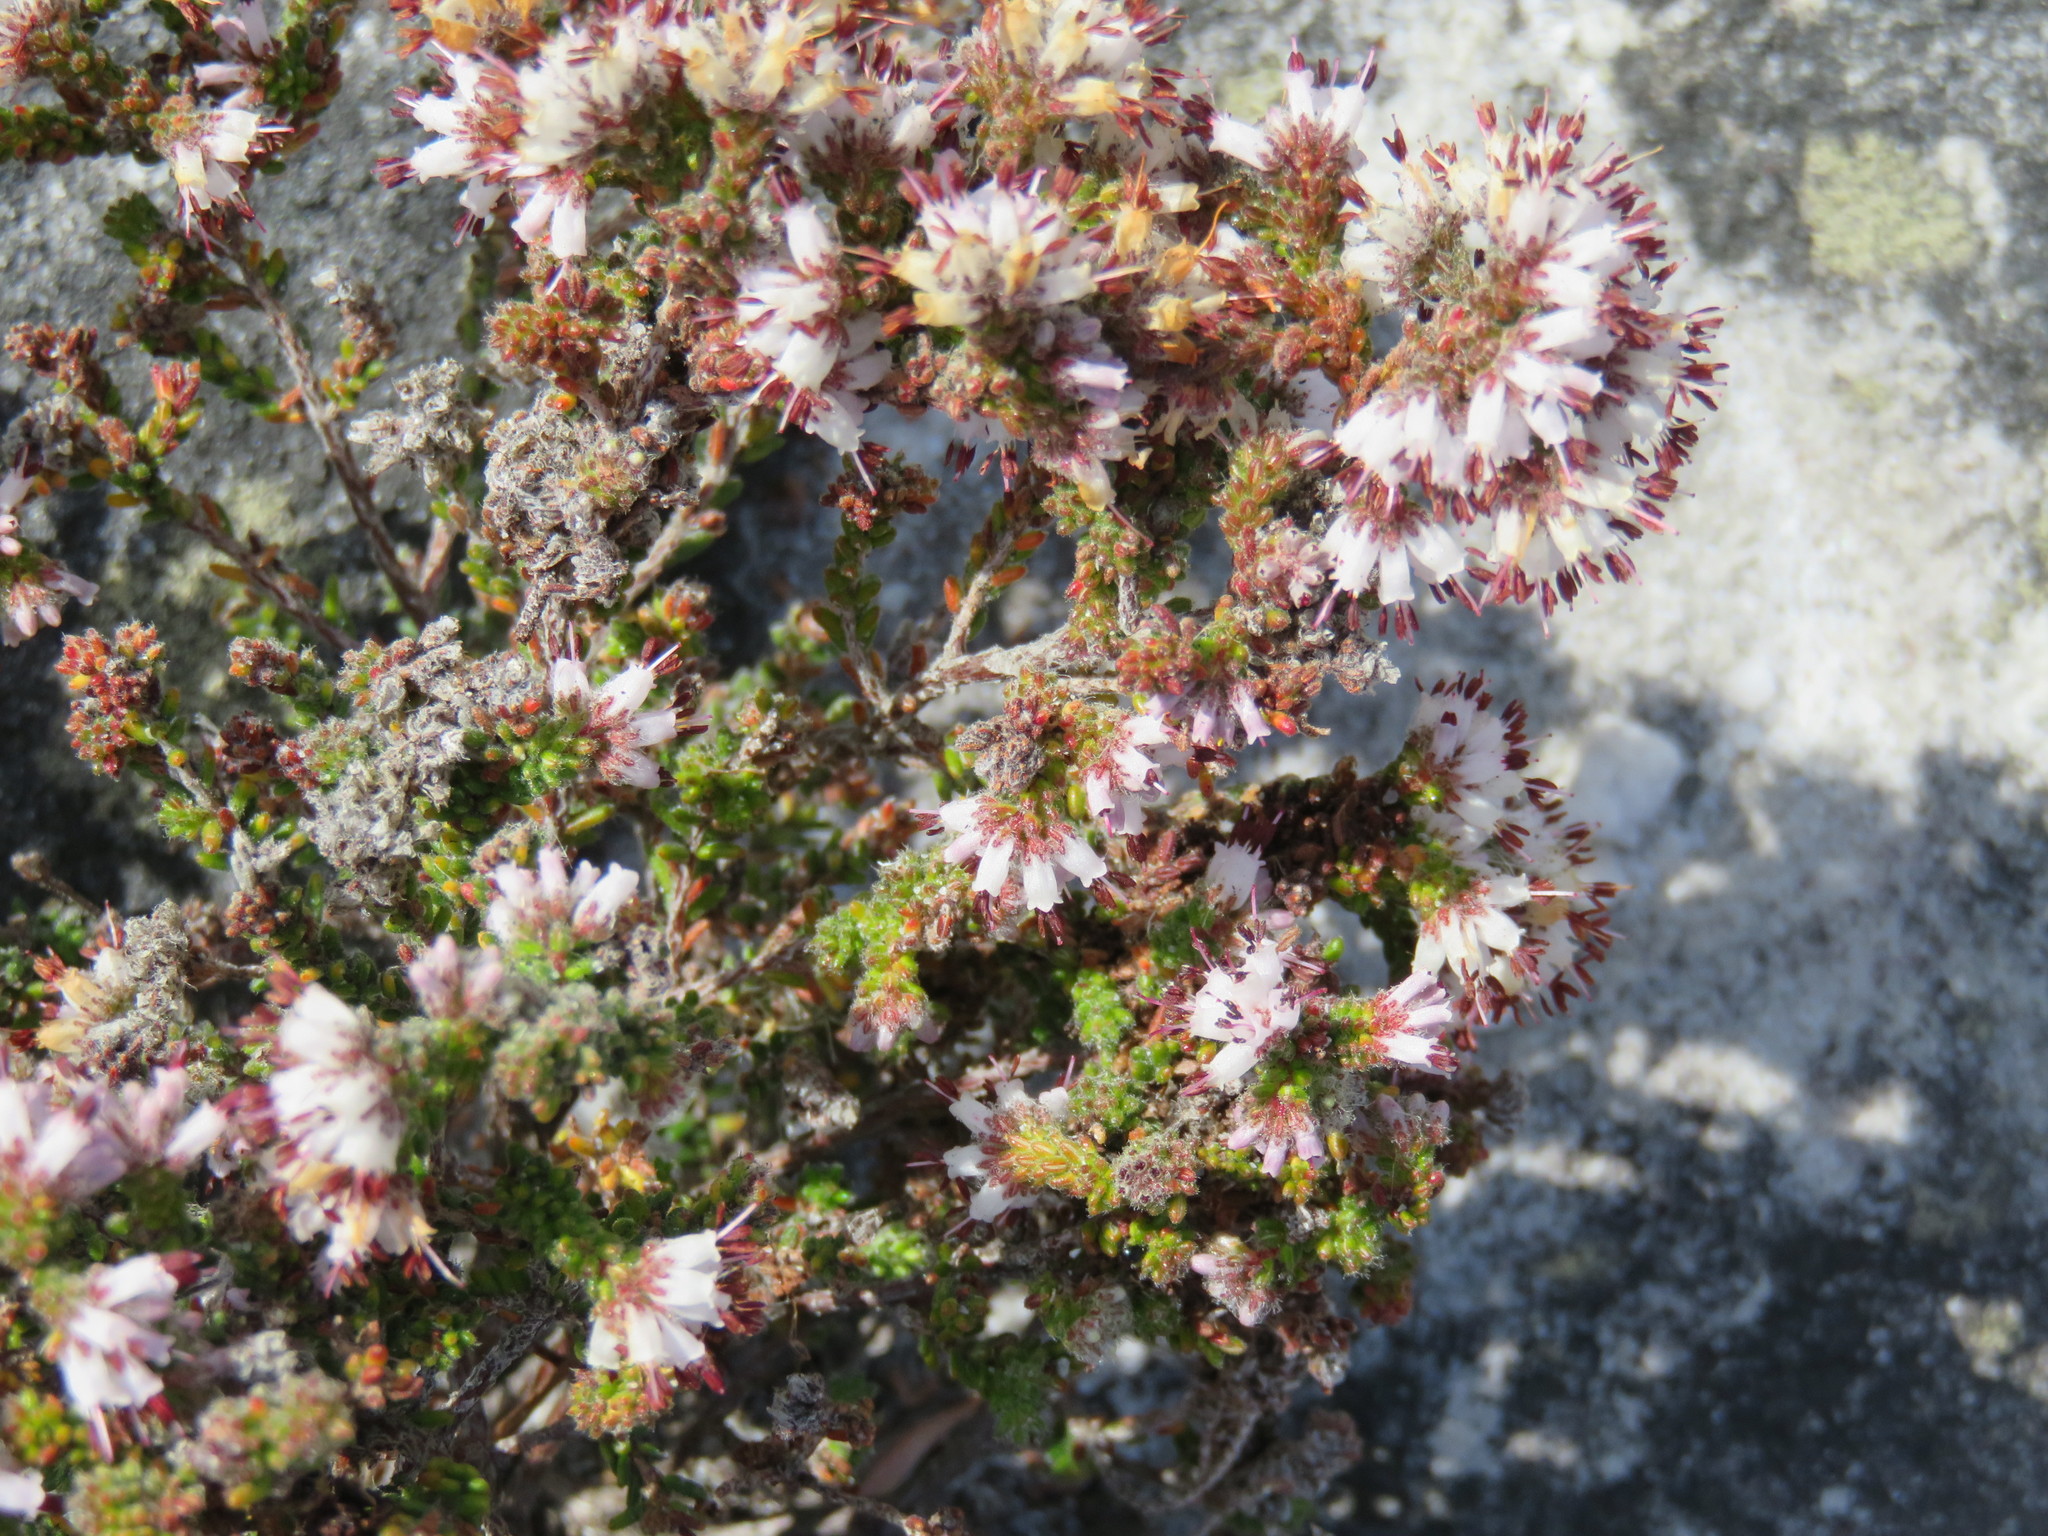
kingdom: Plantae
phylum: Tracheophyta
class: Magnoliopsida
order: Ericales
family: Ericaceae
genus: Erica
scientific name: Erica similis
